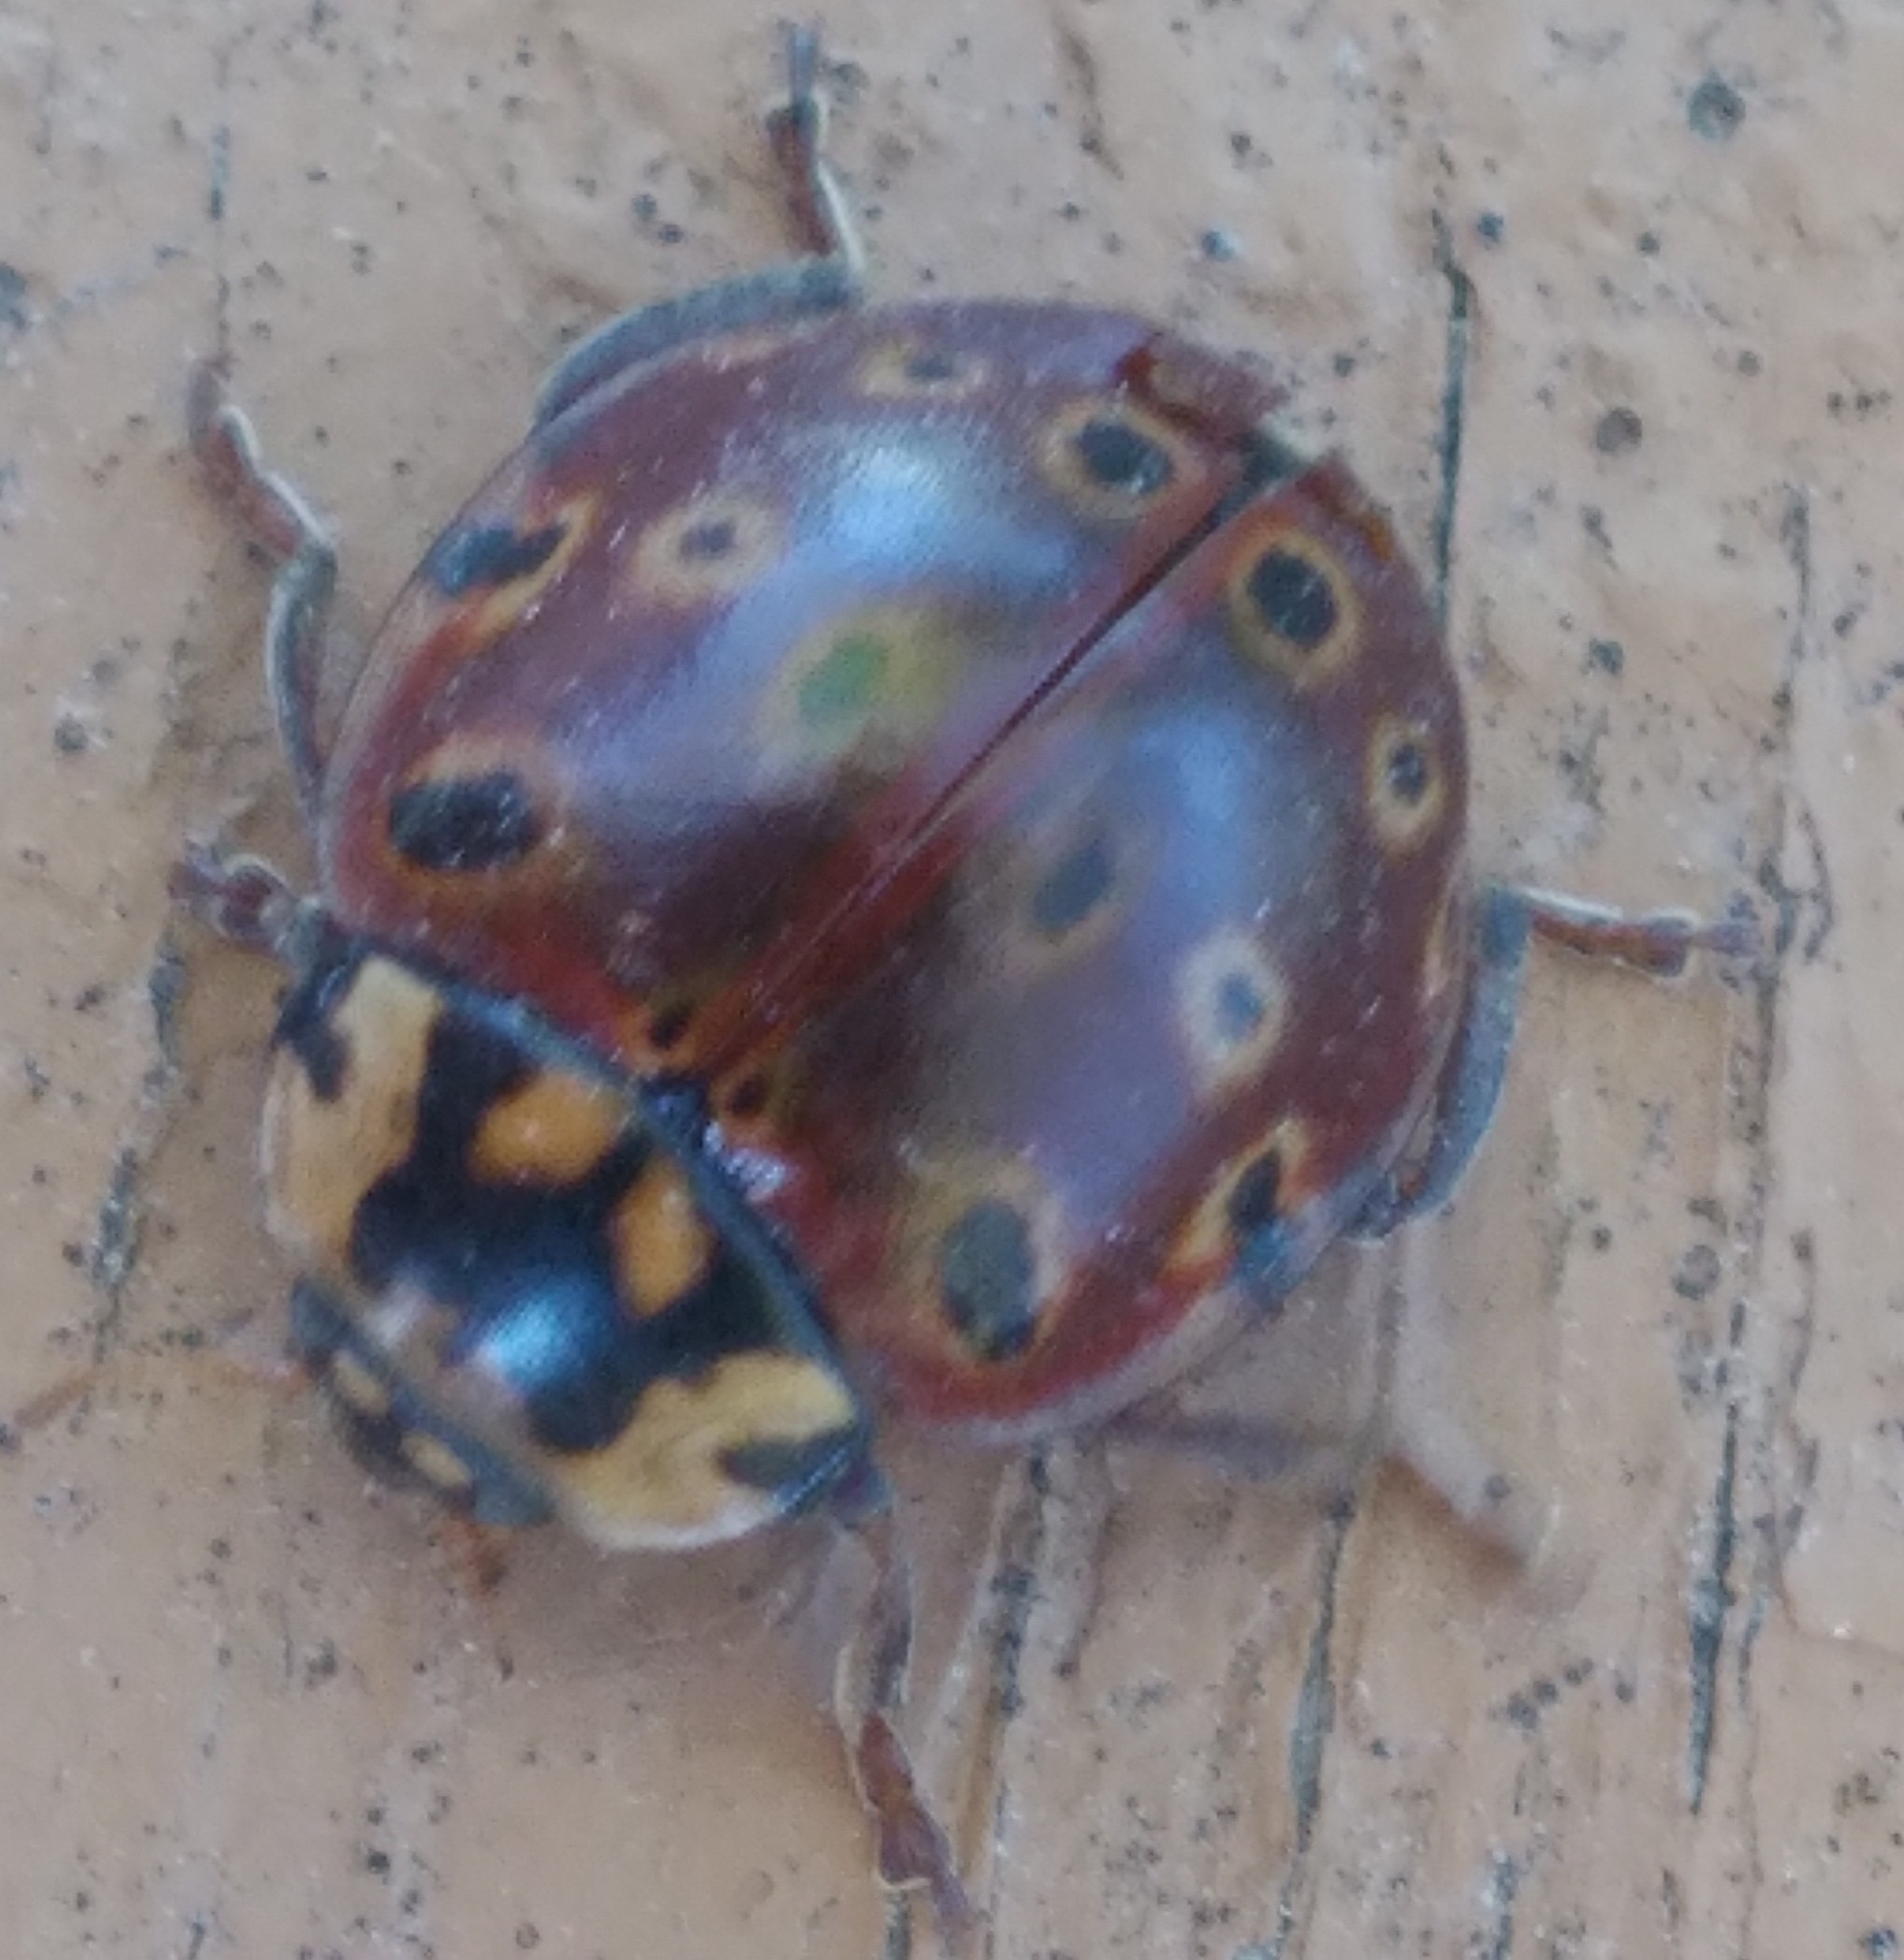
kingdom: Animalia
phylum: Arthropoda
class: Insecta
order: Coleoptera
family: Coccinellidae
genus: Anatis
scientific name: Anatis mali
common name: Eye-spotted lady beetle
